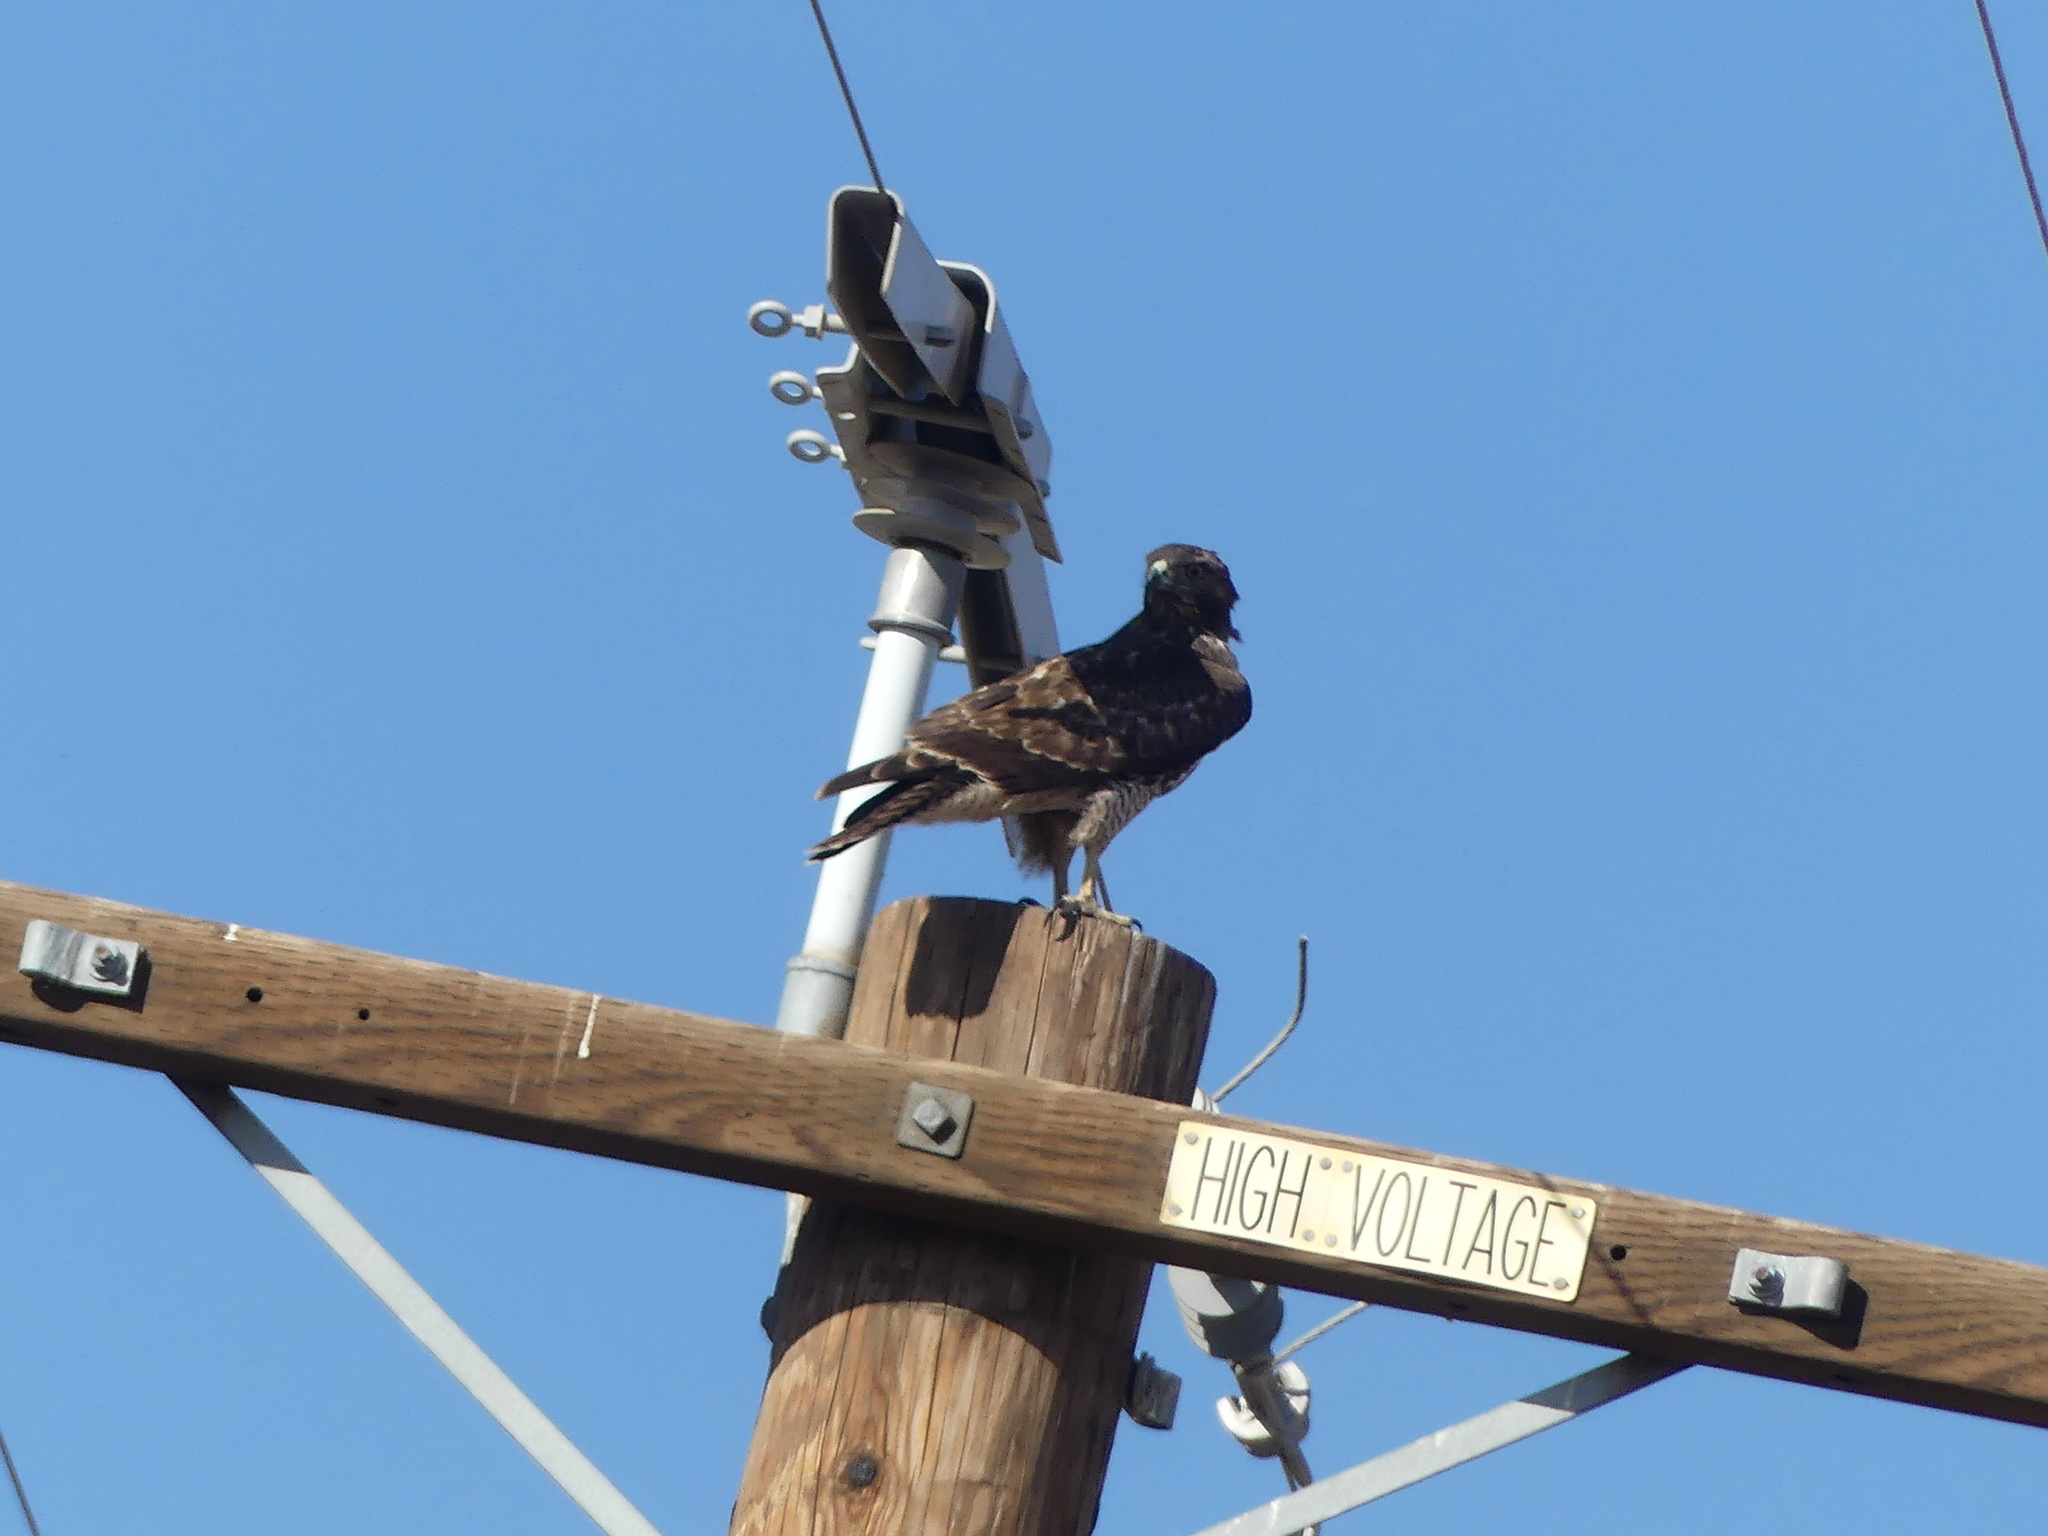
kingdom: Animalia
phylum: Chordata
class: Aves
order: Accipitriformes
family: Accipitridae
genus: Buteo
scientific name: Buteo jamaicensis
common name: Red-tailed hawk
